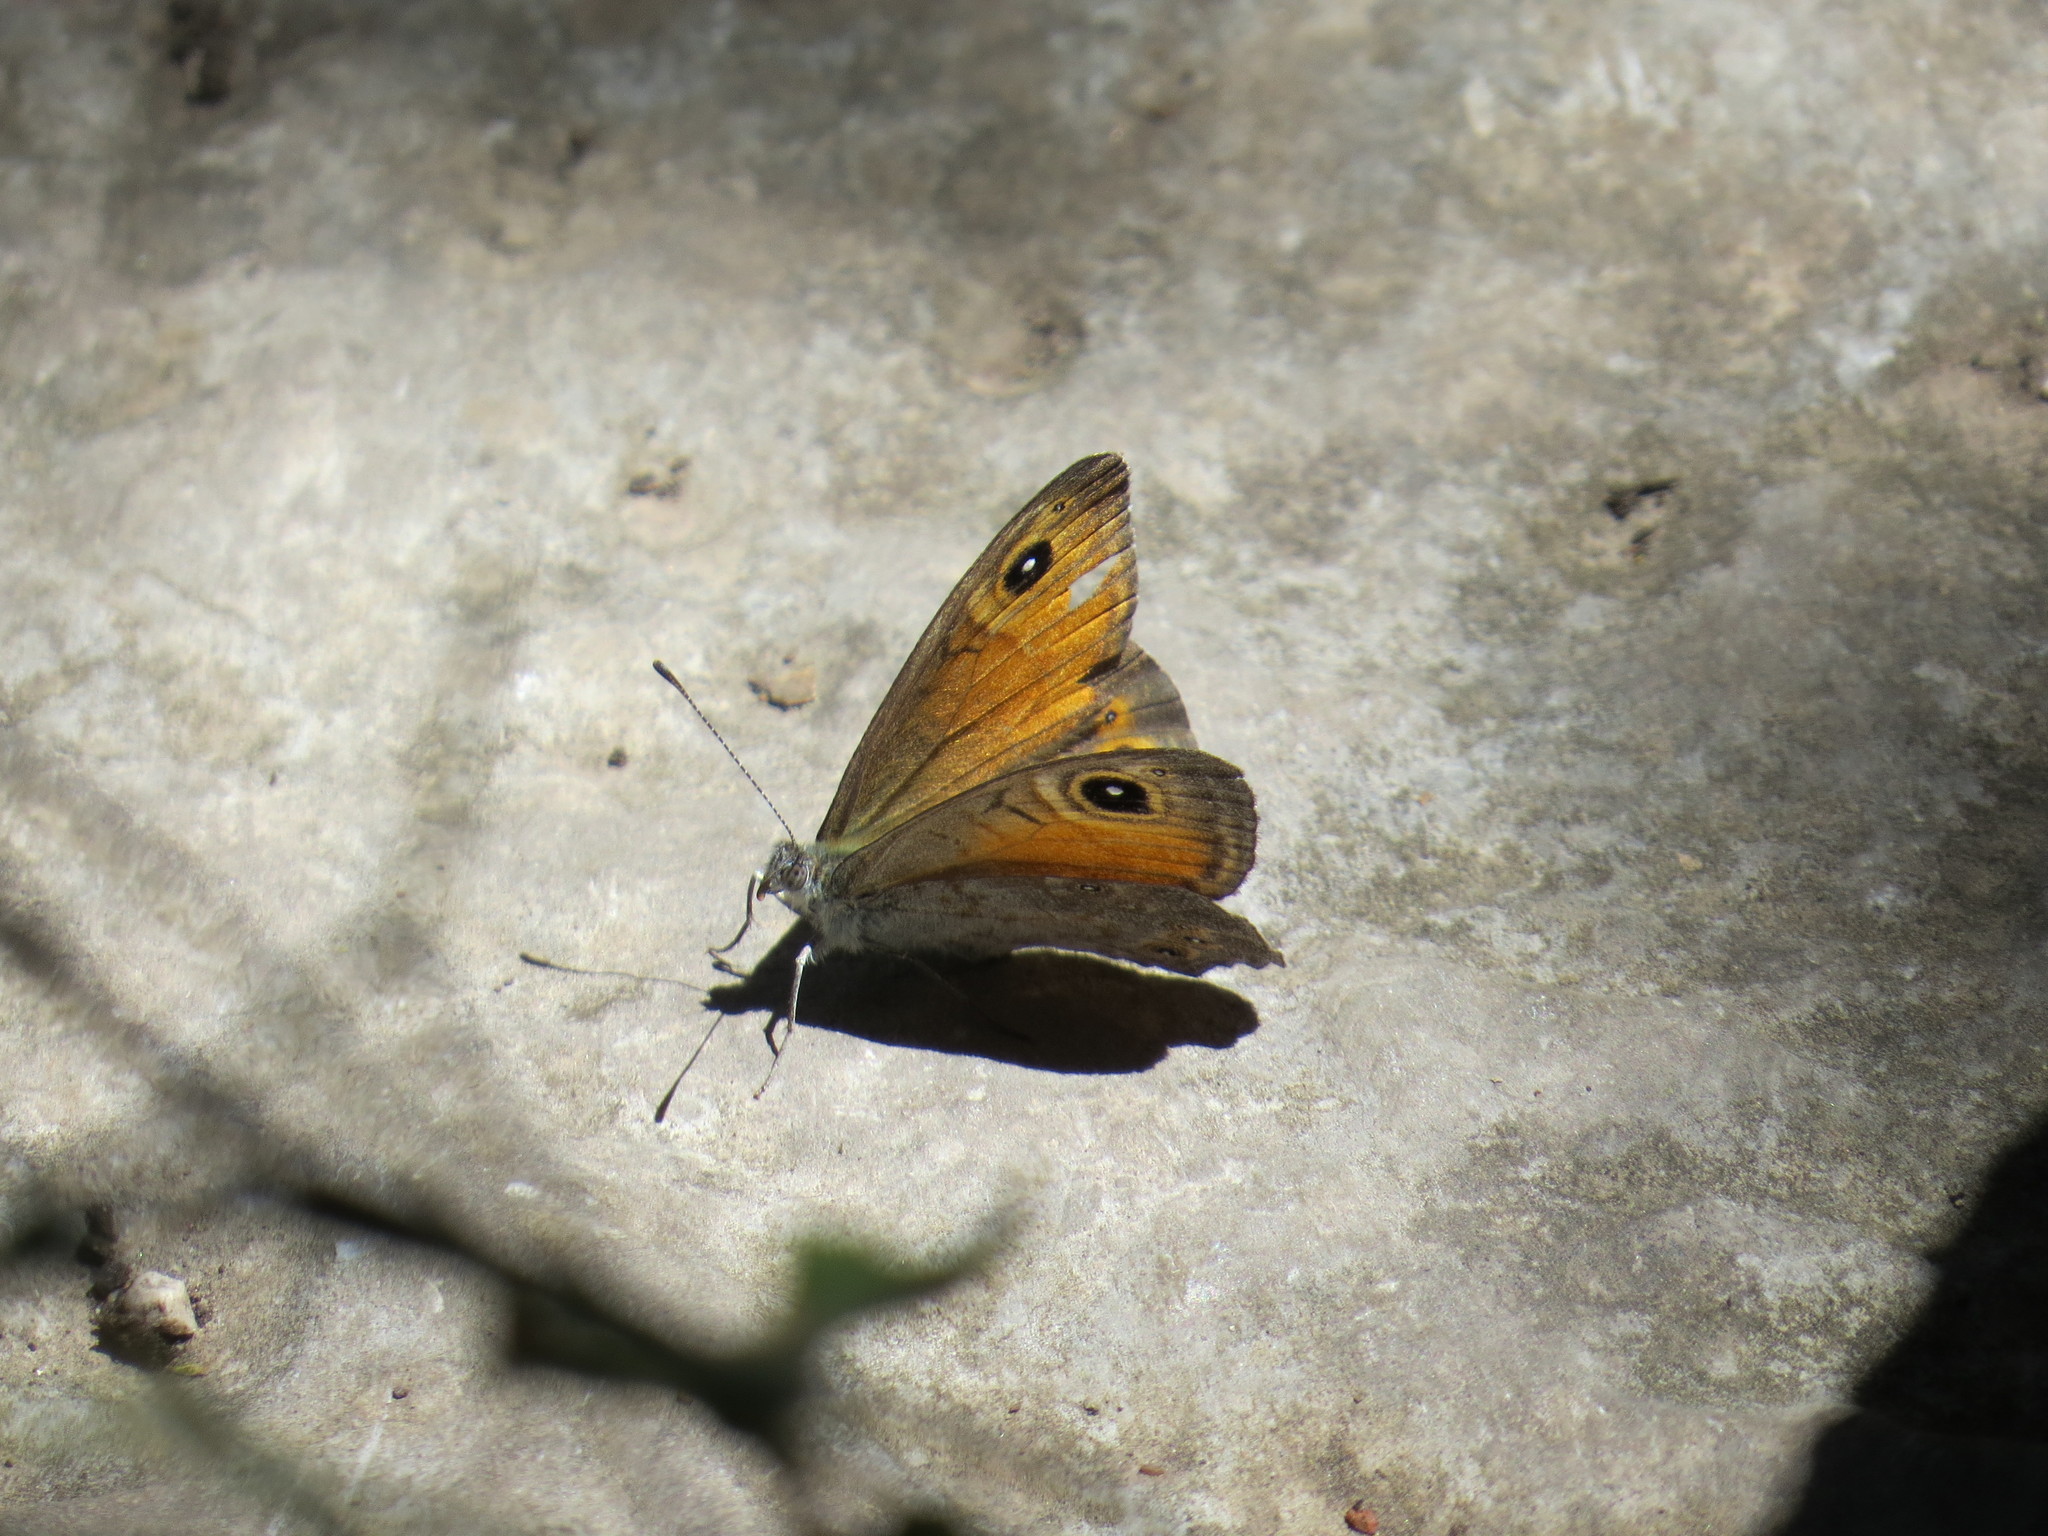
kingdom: Animalia
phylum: Arthropoda
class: Insecta
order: Lepidoptera
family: Nymphalidae
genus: Pararge
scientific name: Pararge Lasiommata maera
